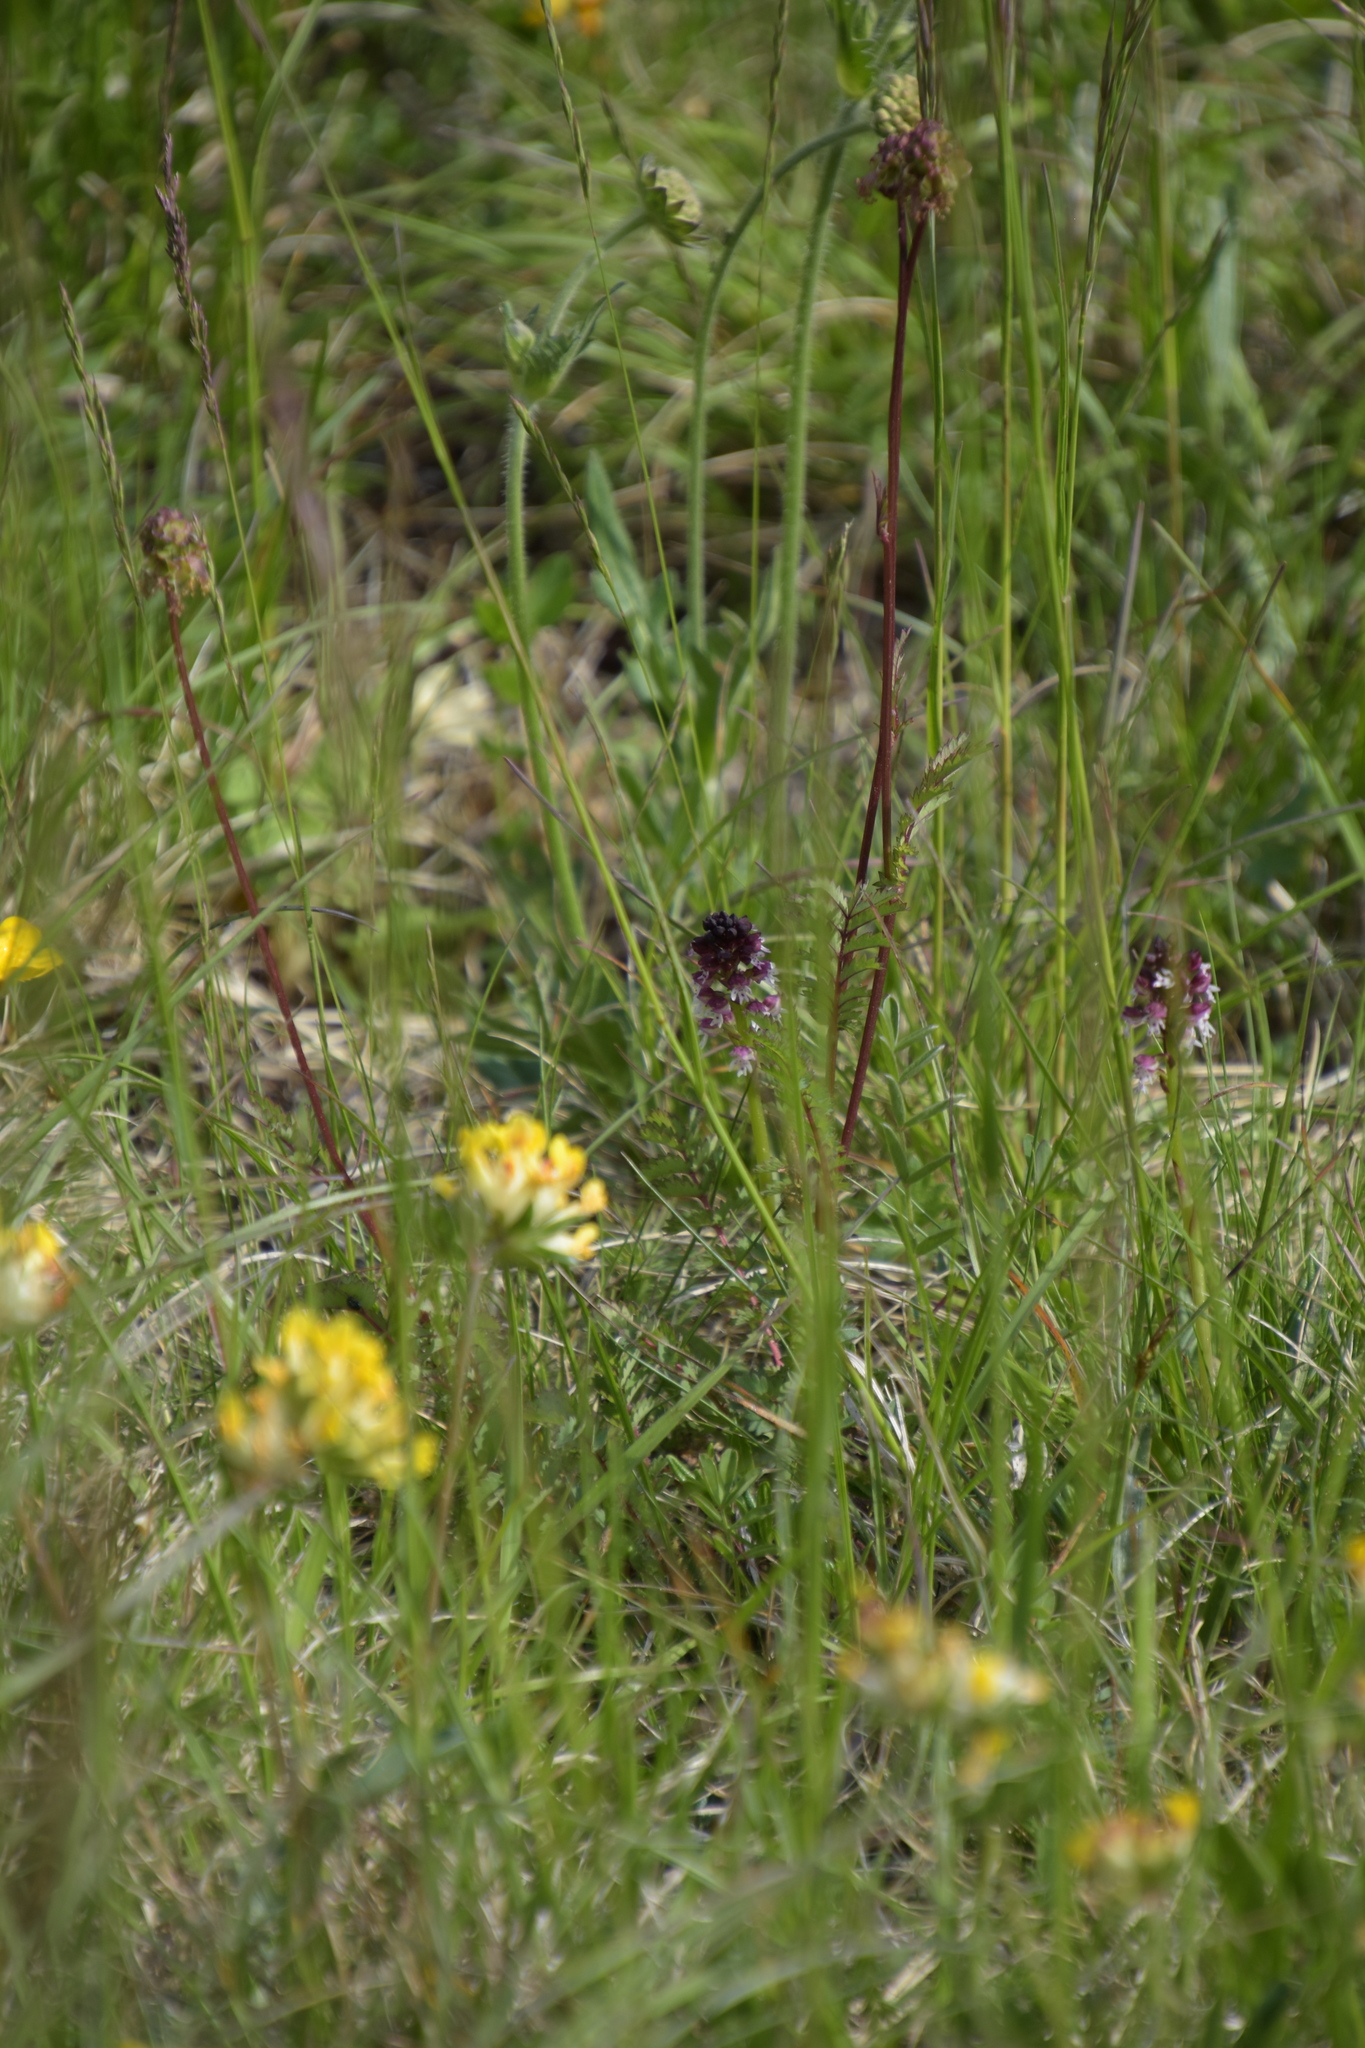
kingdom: Plantae
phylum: Tracheophyta
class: Liliopsida
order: Asparagales
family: Orchidaceae
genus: Neotinea
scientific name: Neotinea ustulata
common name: Burnt orchid
